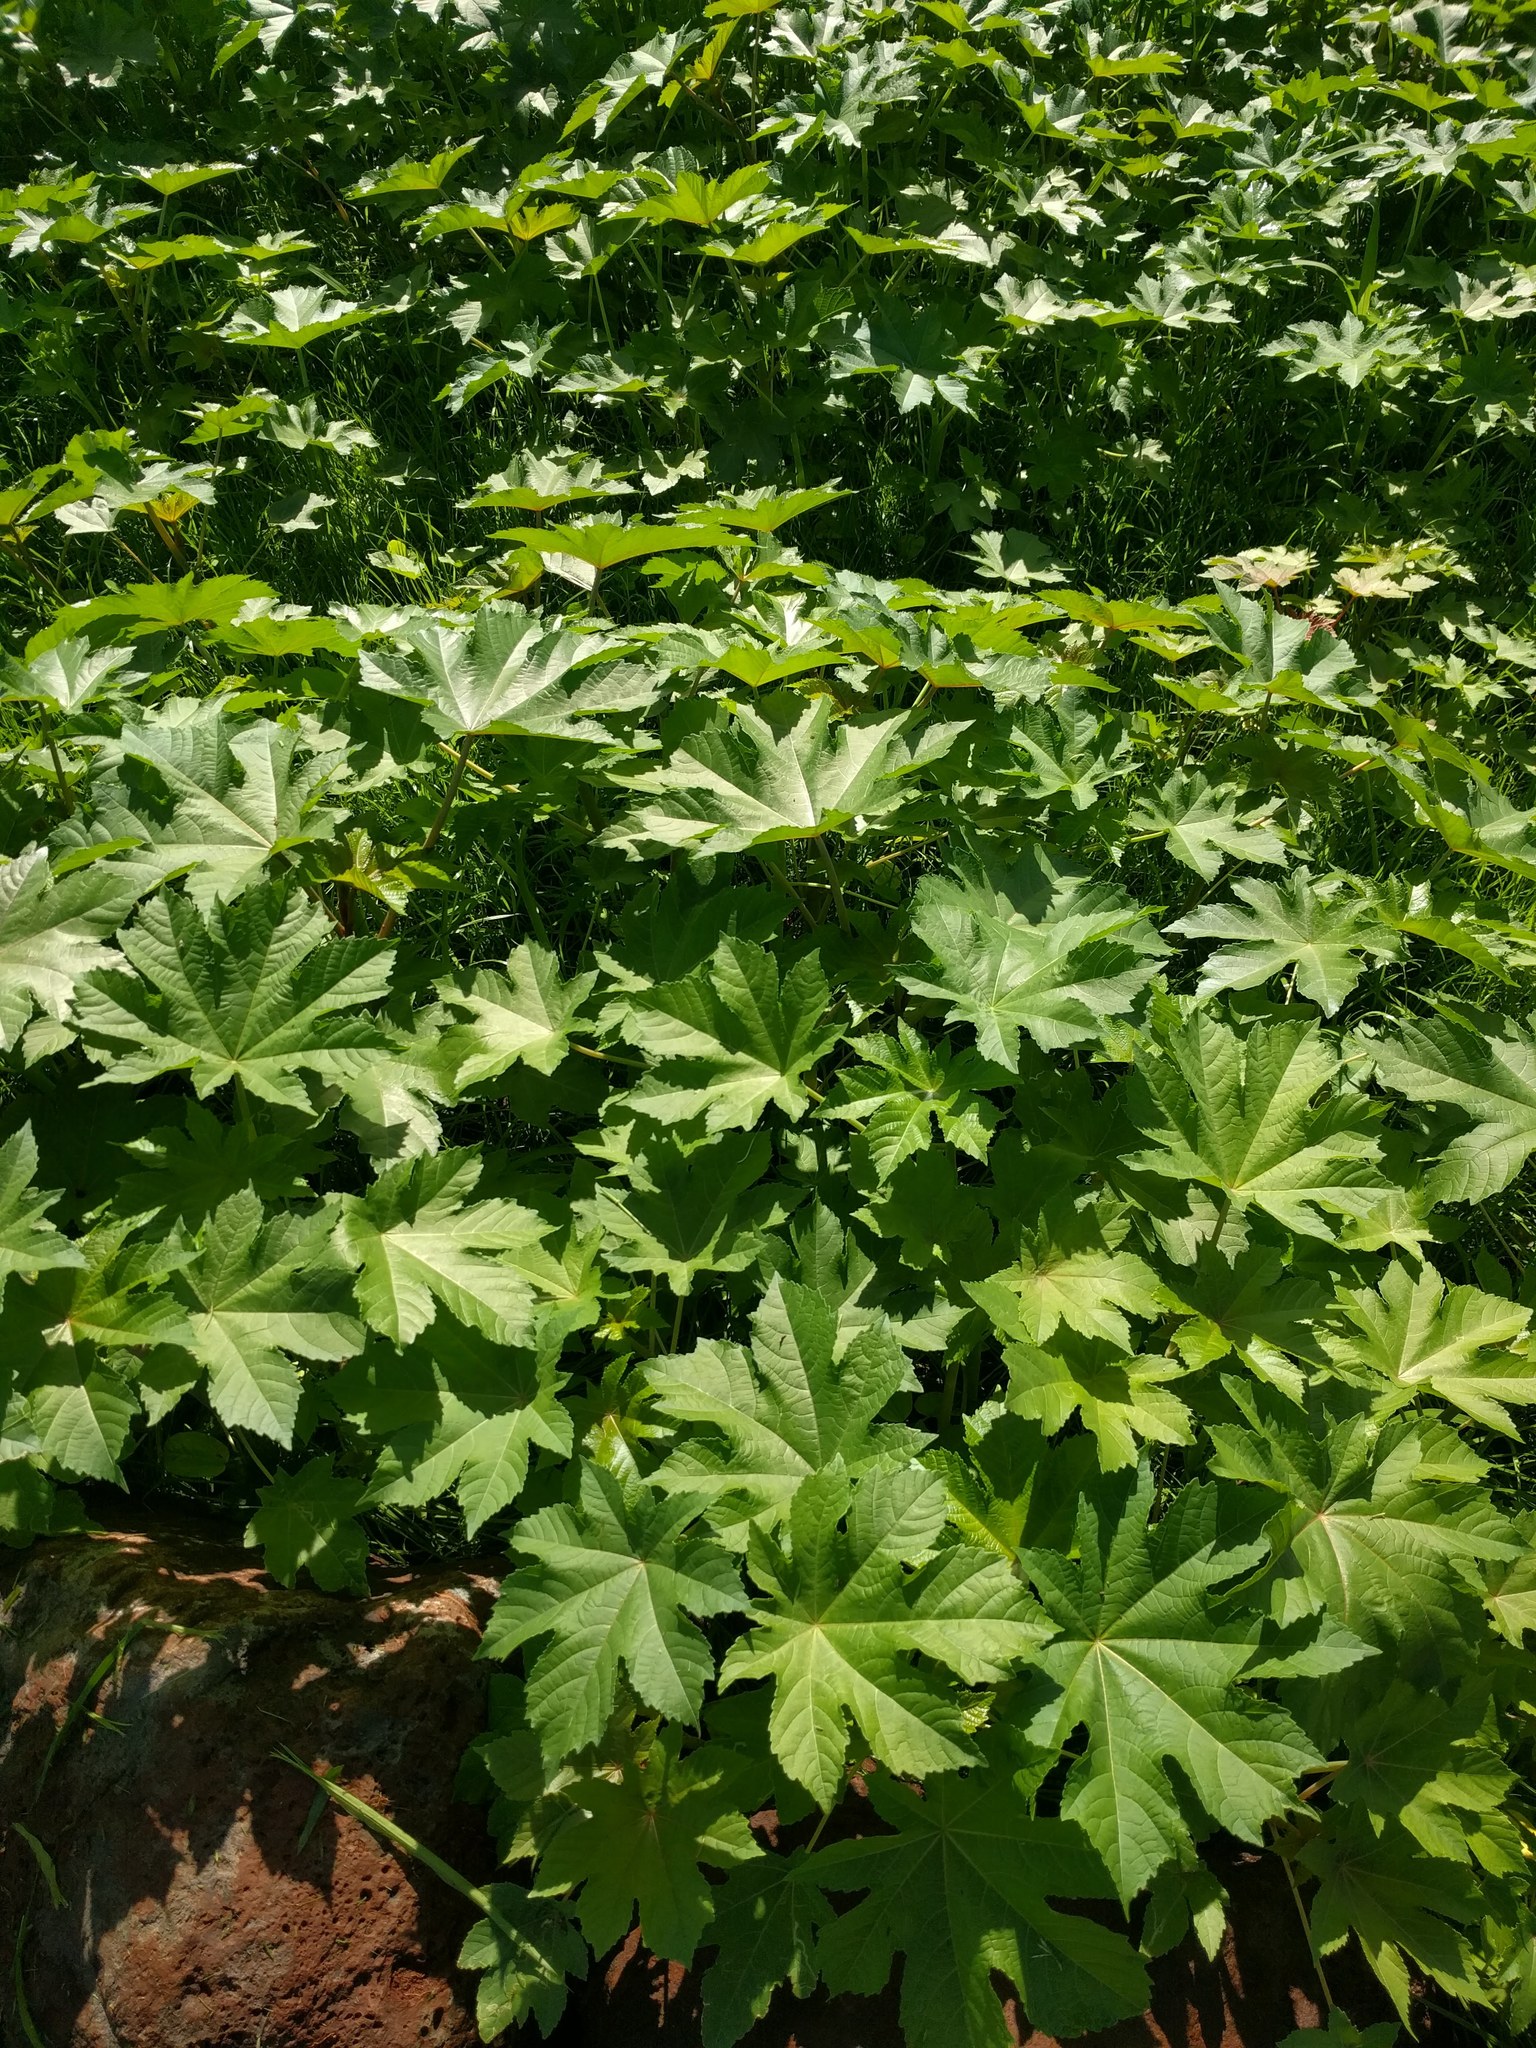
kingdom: Plantae
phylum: Tracheophyta
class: Magnoliopsida
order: Malpighiales
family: Euphorbiaceae
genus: Ricinus
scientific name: Ricinus communis
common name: Castor-oil-plant
